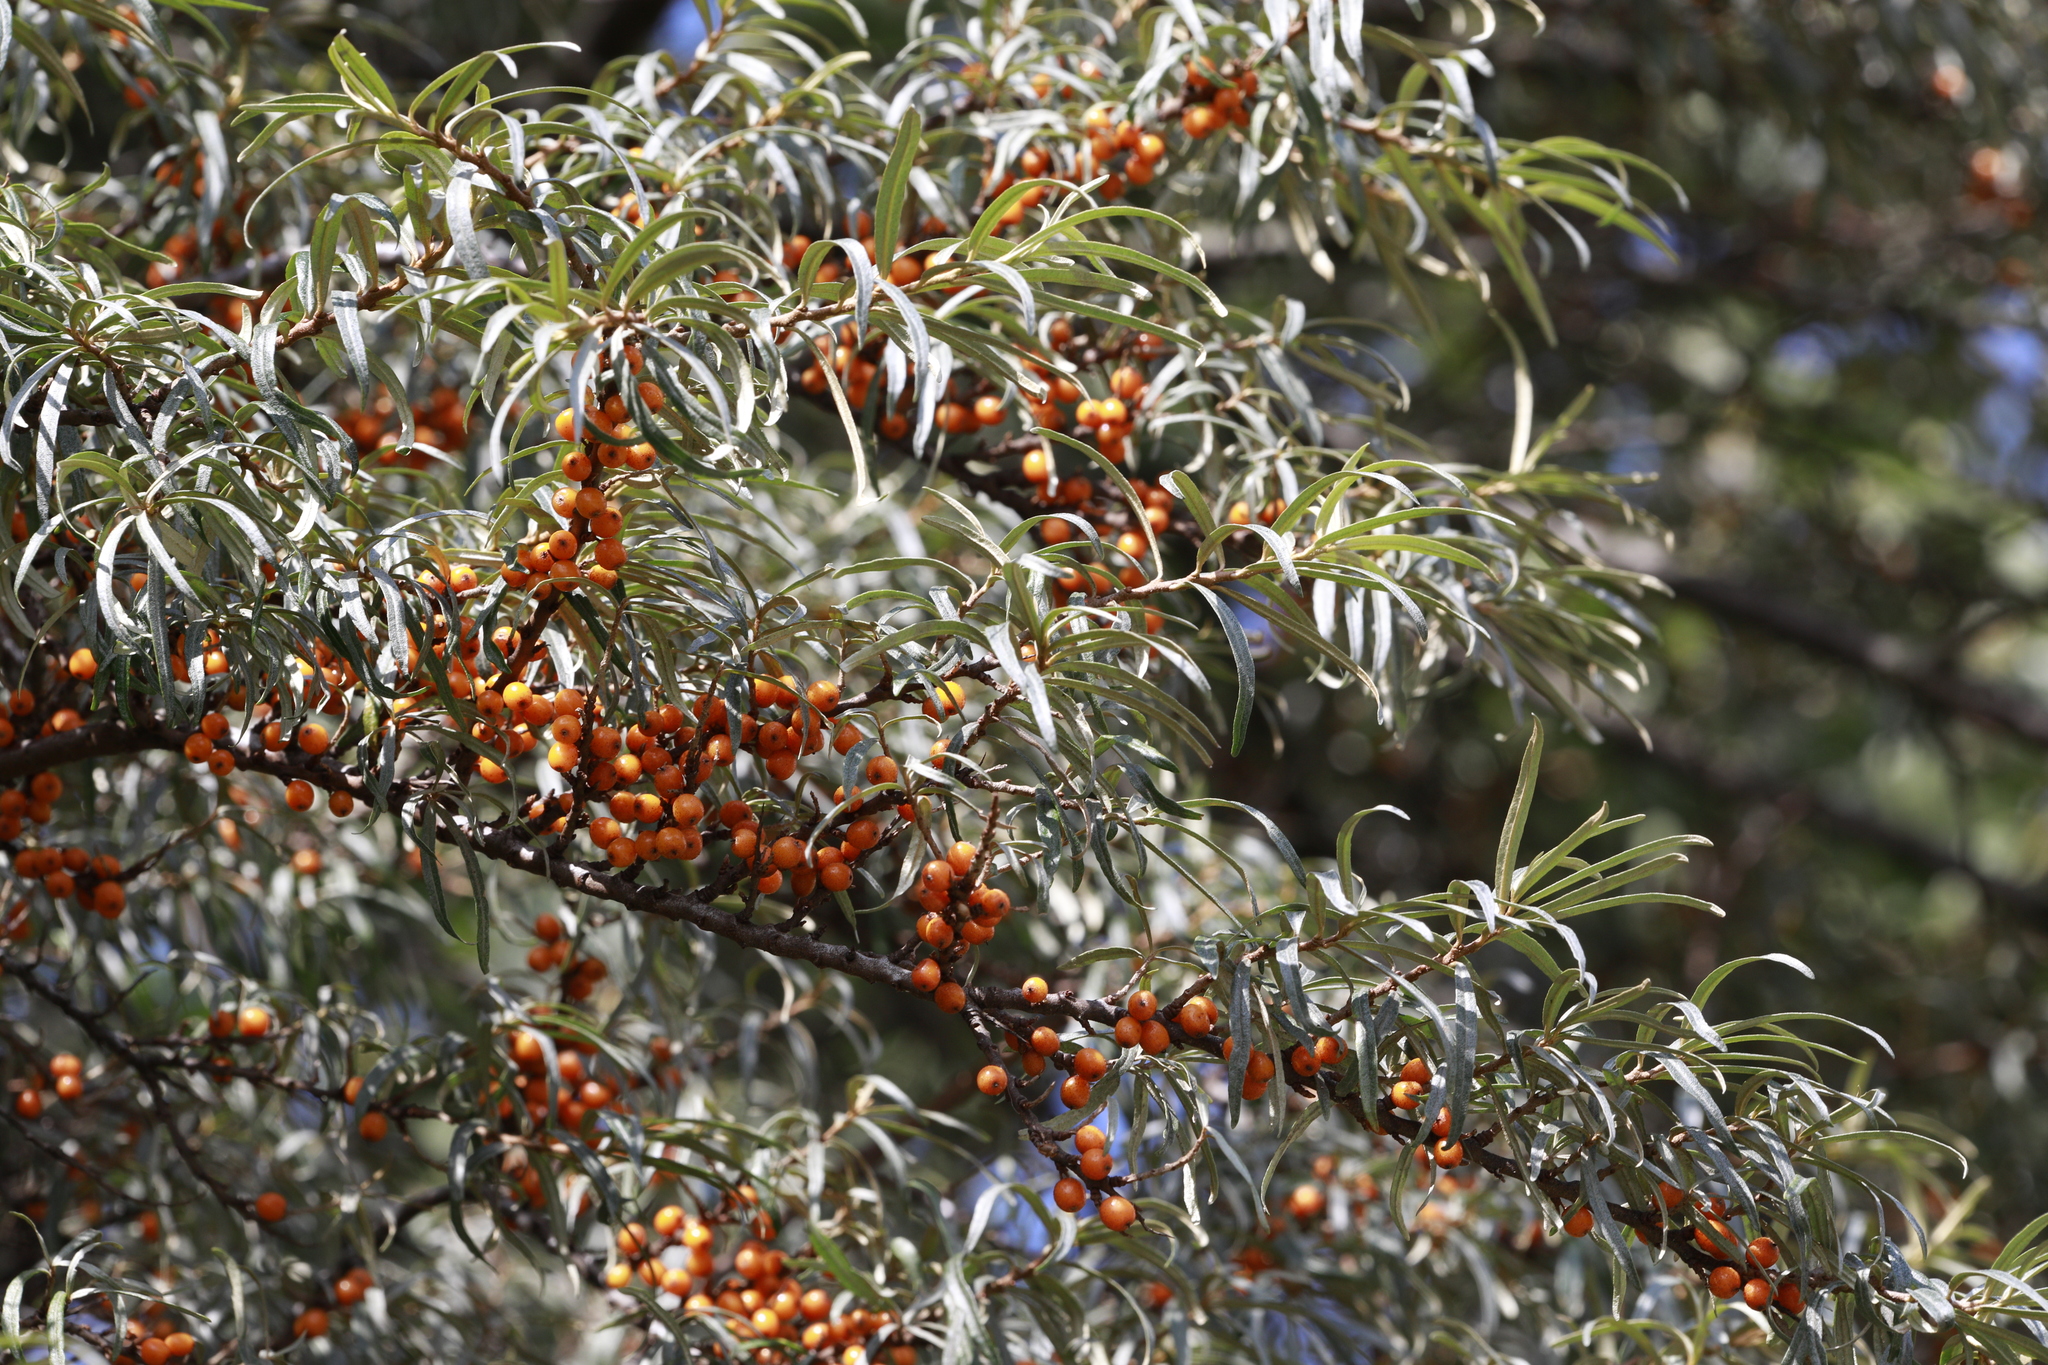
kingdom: Plantae
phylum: Tracheophyta
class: Magnoliopsida
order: Rosales
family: Elaeagnaceae
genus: Hippophae
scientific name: Hippophae rhamnoides
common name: Sea-buckthorn
